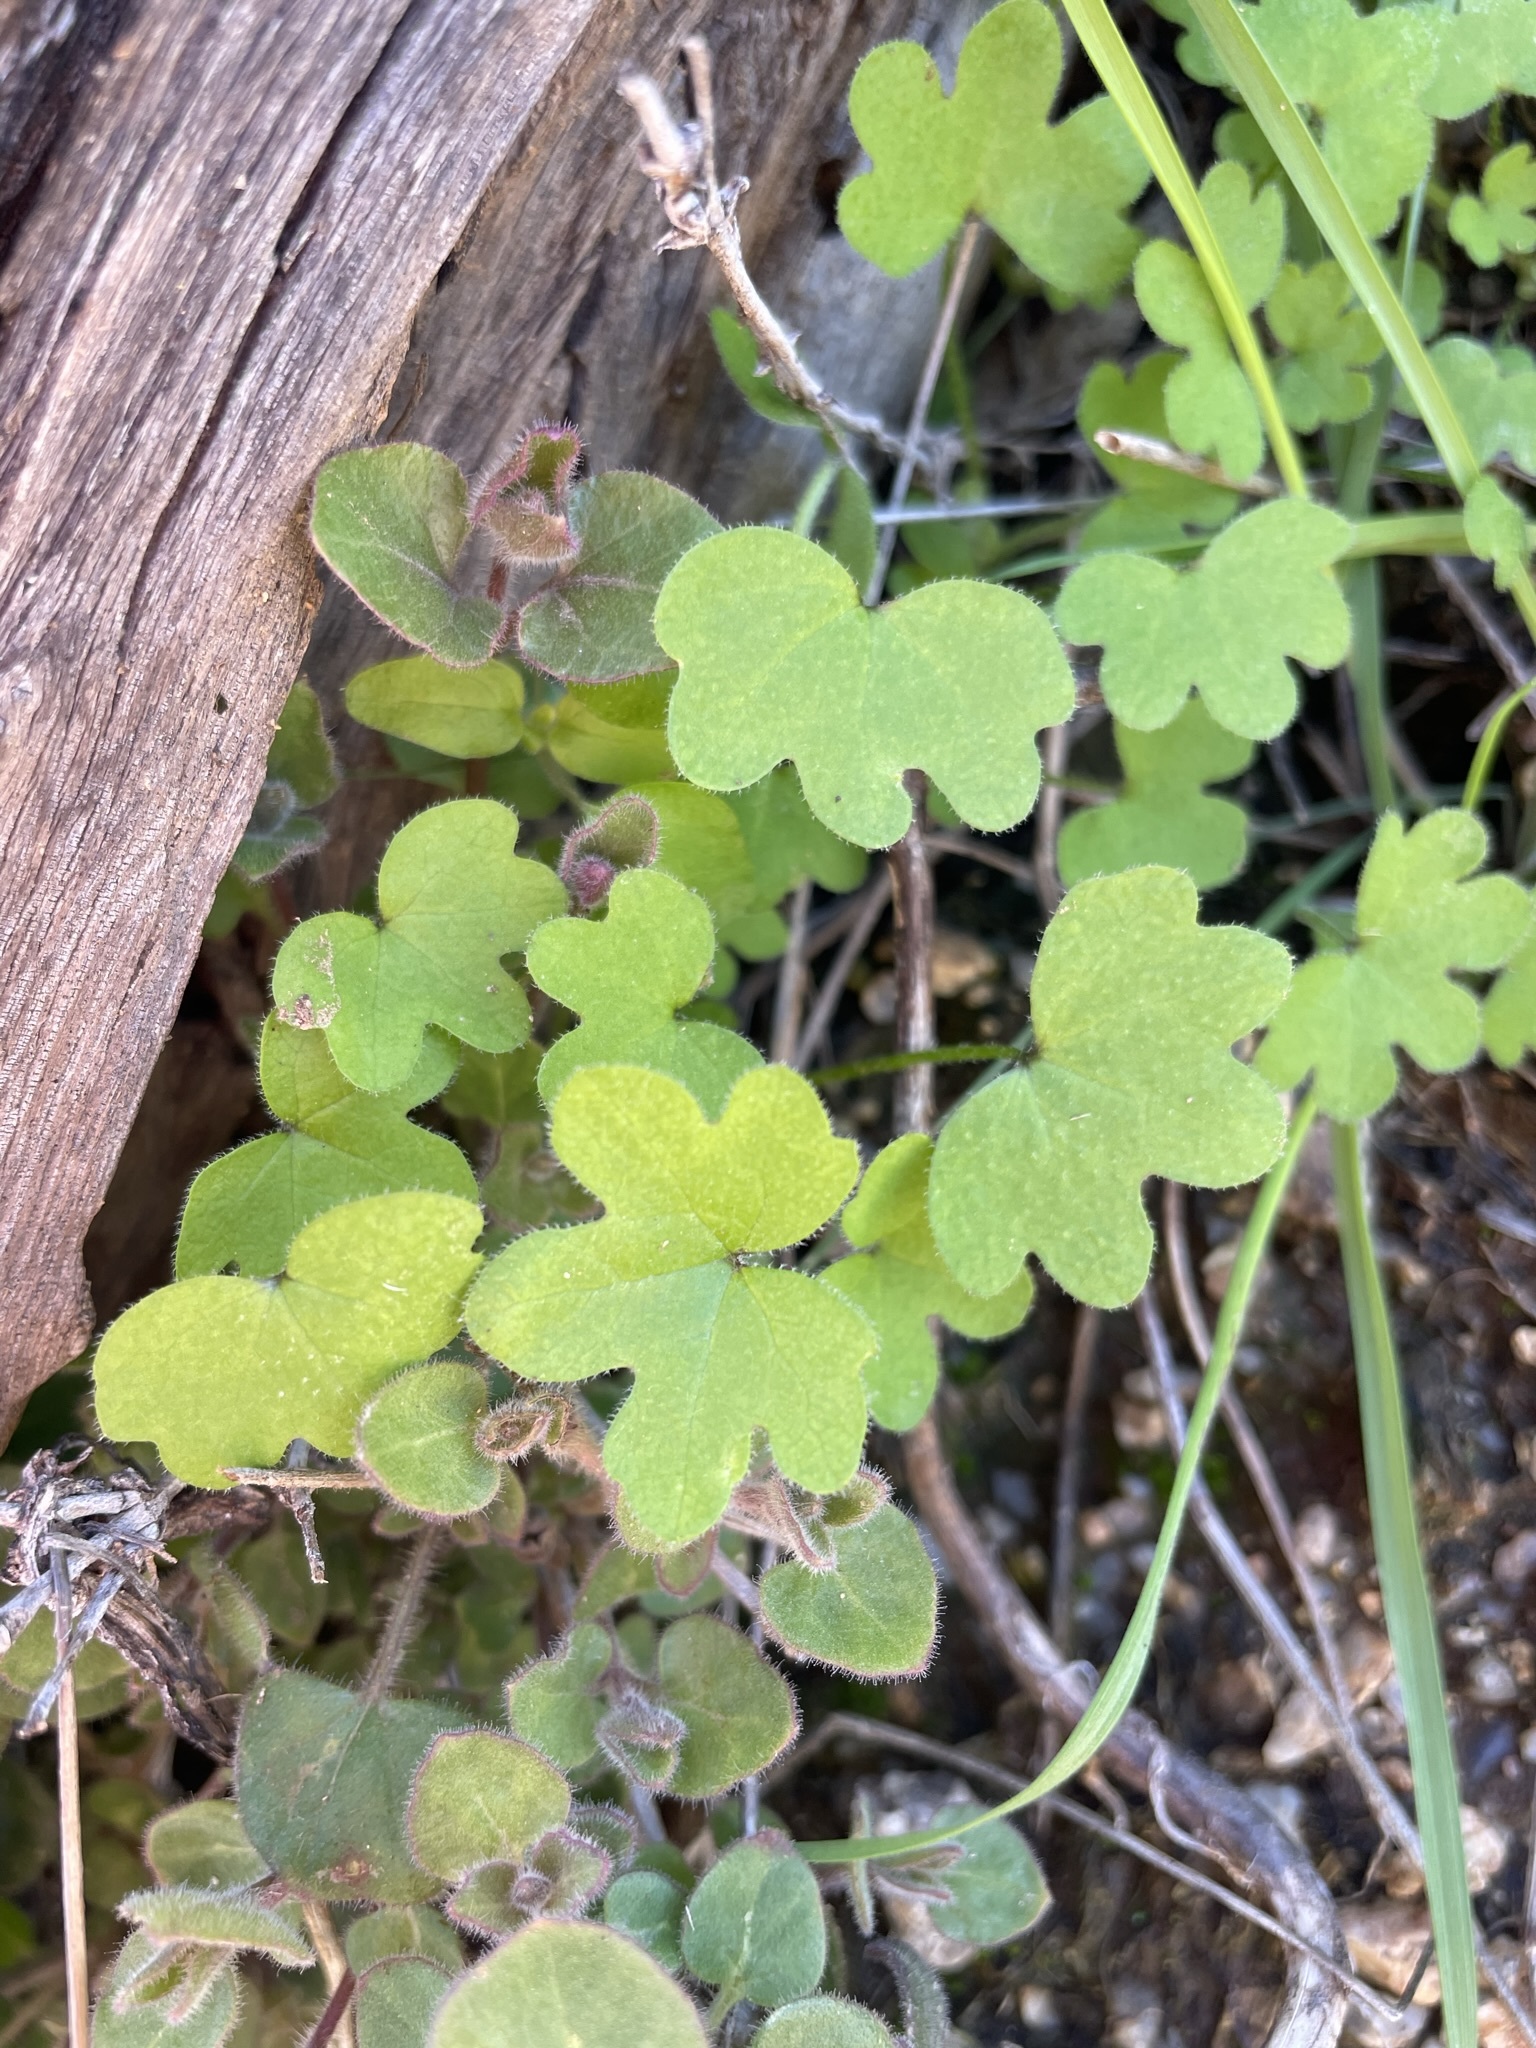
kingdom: Plantae
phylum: Tracheophyta
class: Magnoliopsida
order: Apiales
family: Apiaceae
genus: Bowlesia
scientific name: Bowlesia incana
